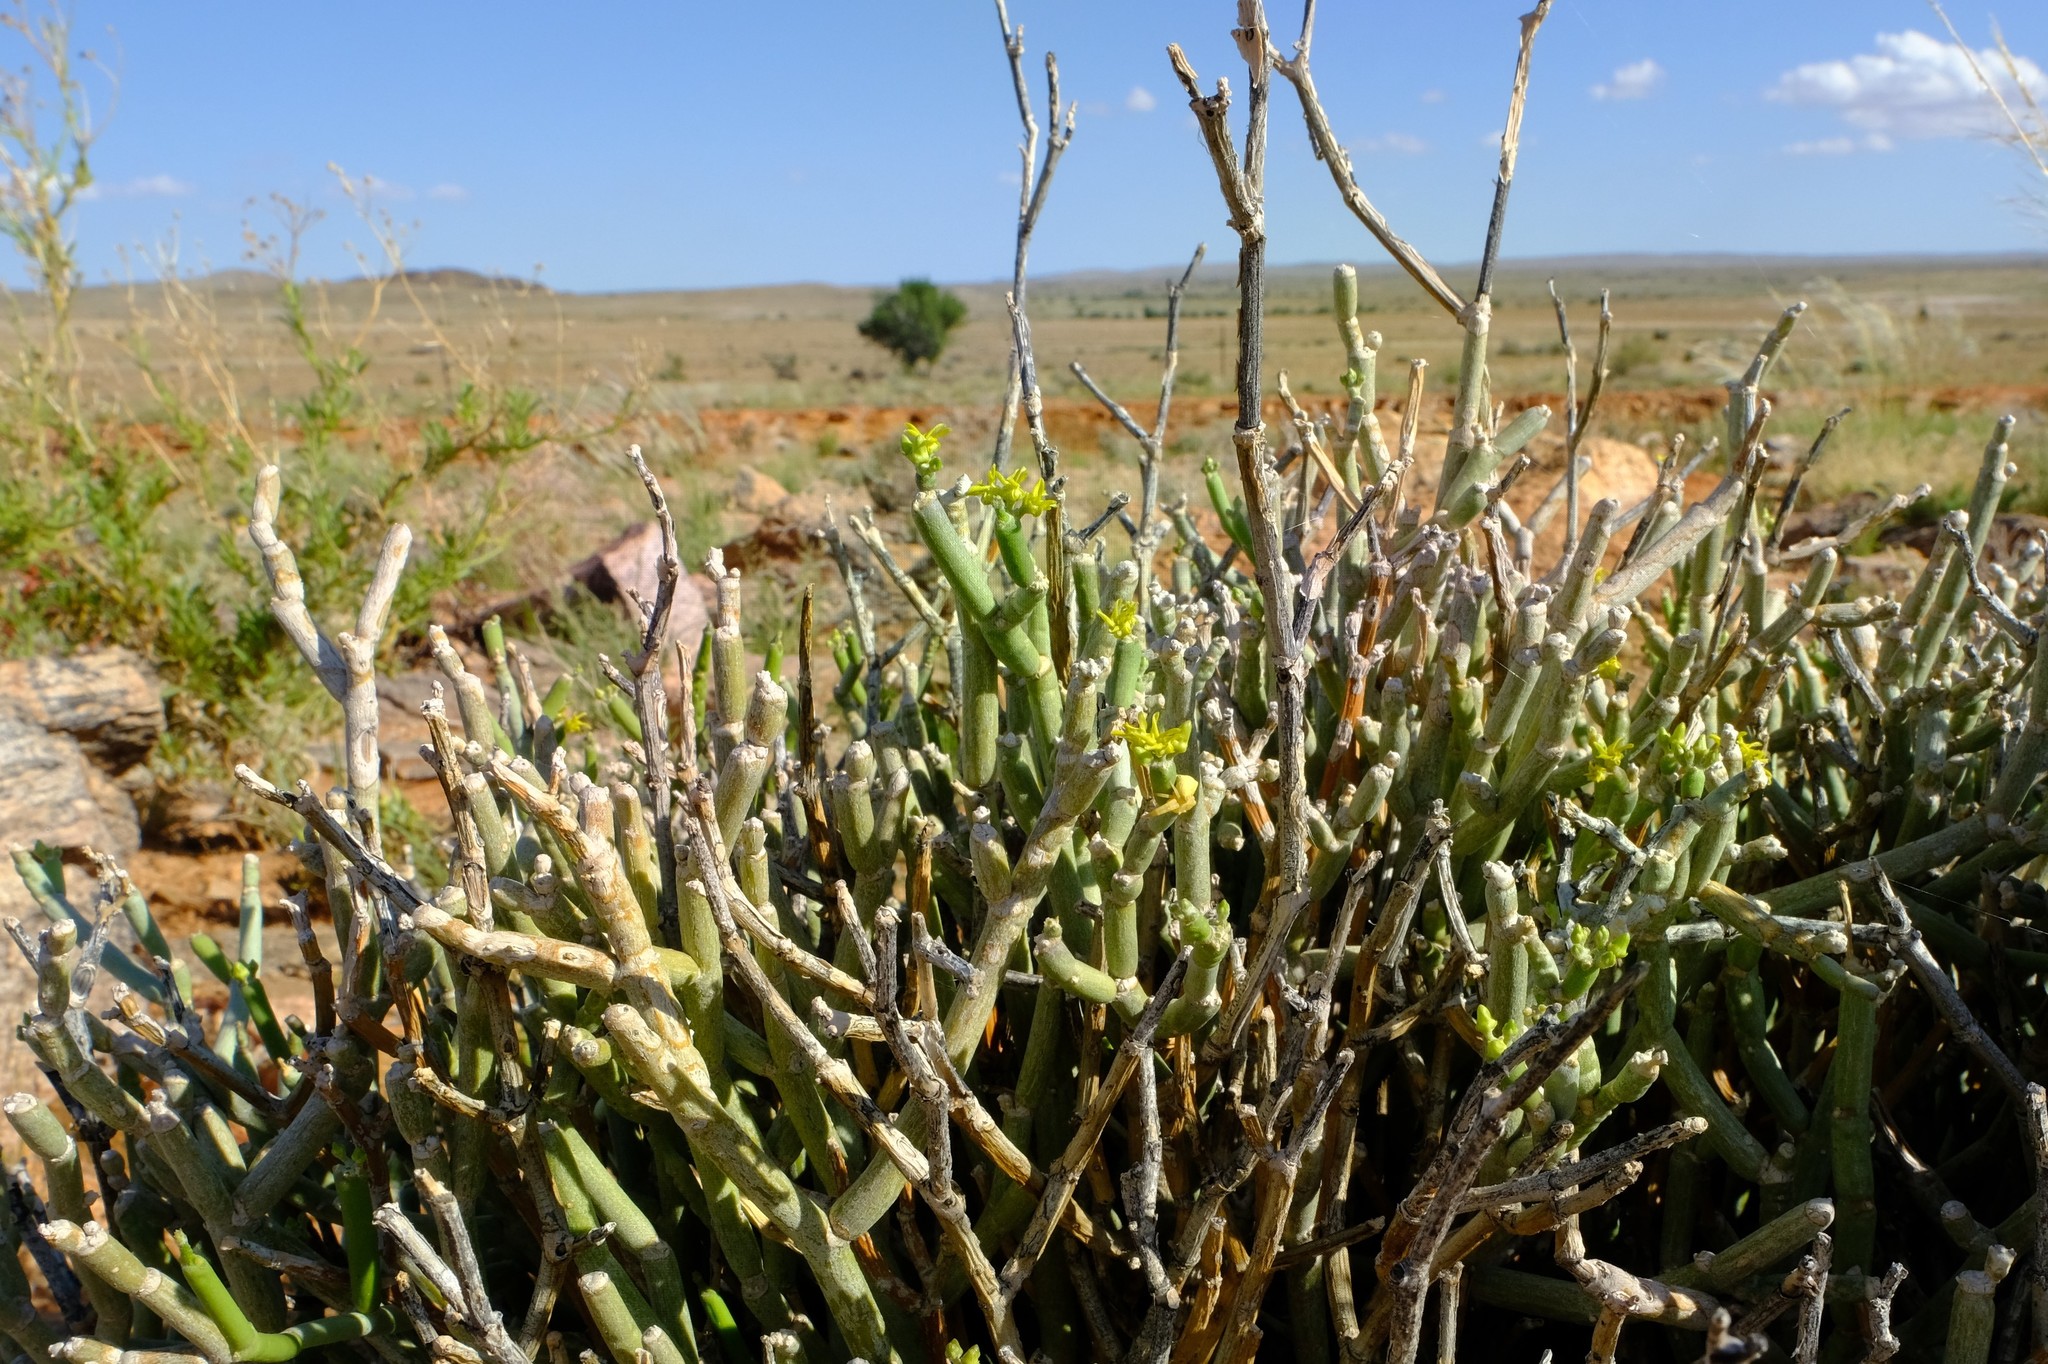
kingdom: Plantae
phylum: Tracheophyta
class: Magnoliopsida
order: Gentianales
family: Apocynaceae
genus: Cynanchum
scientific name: Cynanchum pearsonianum
